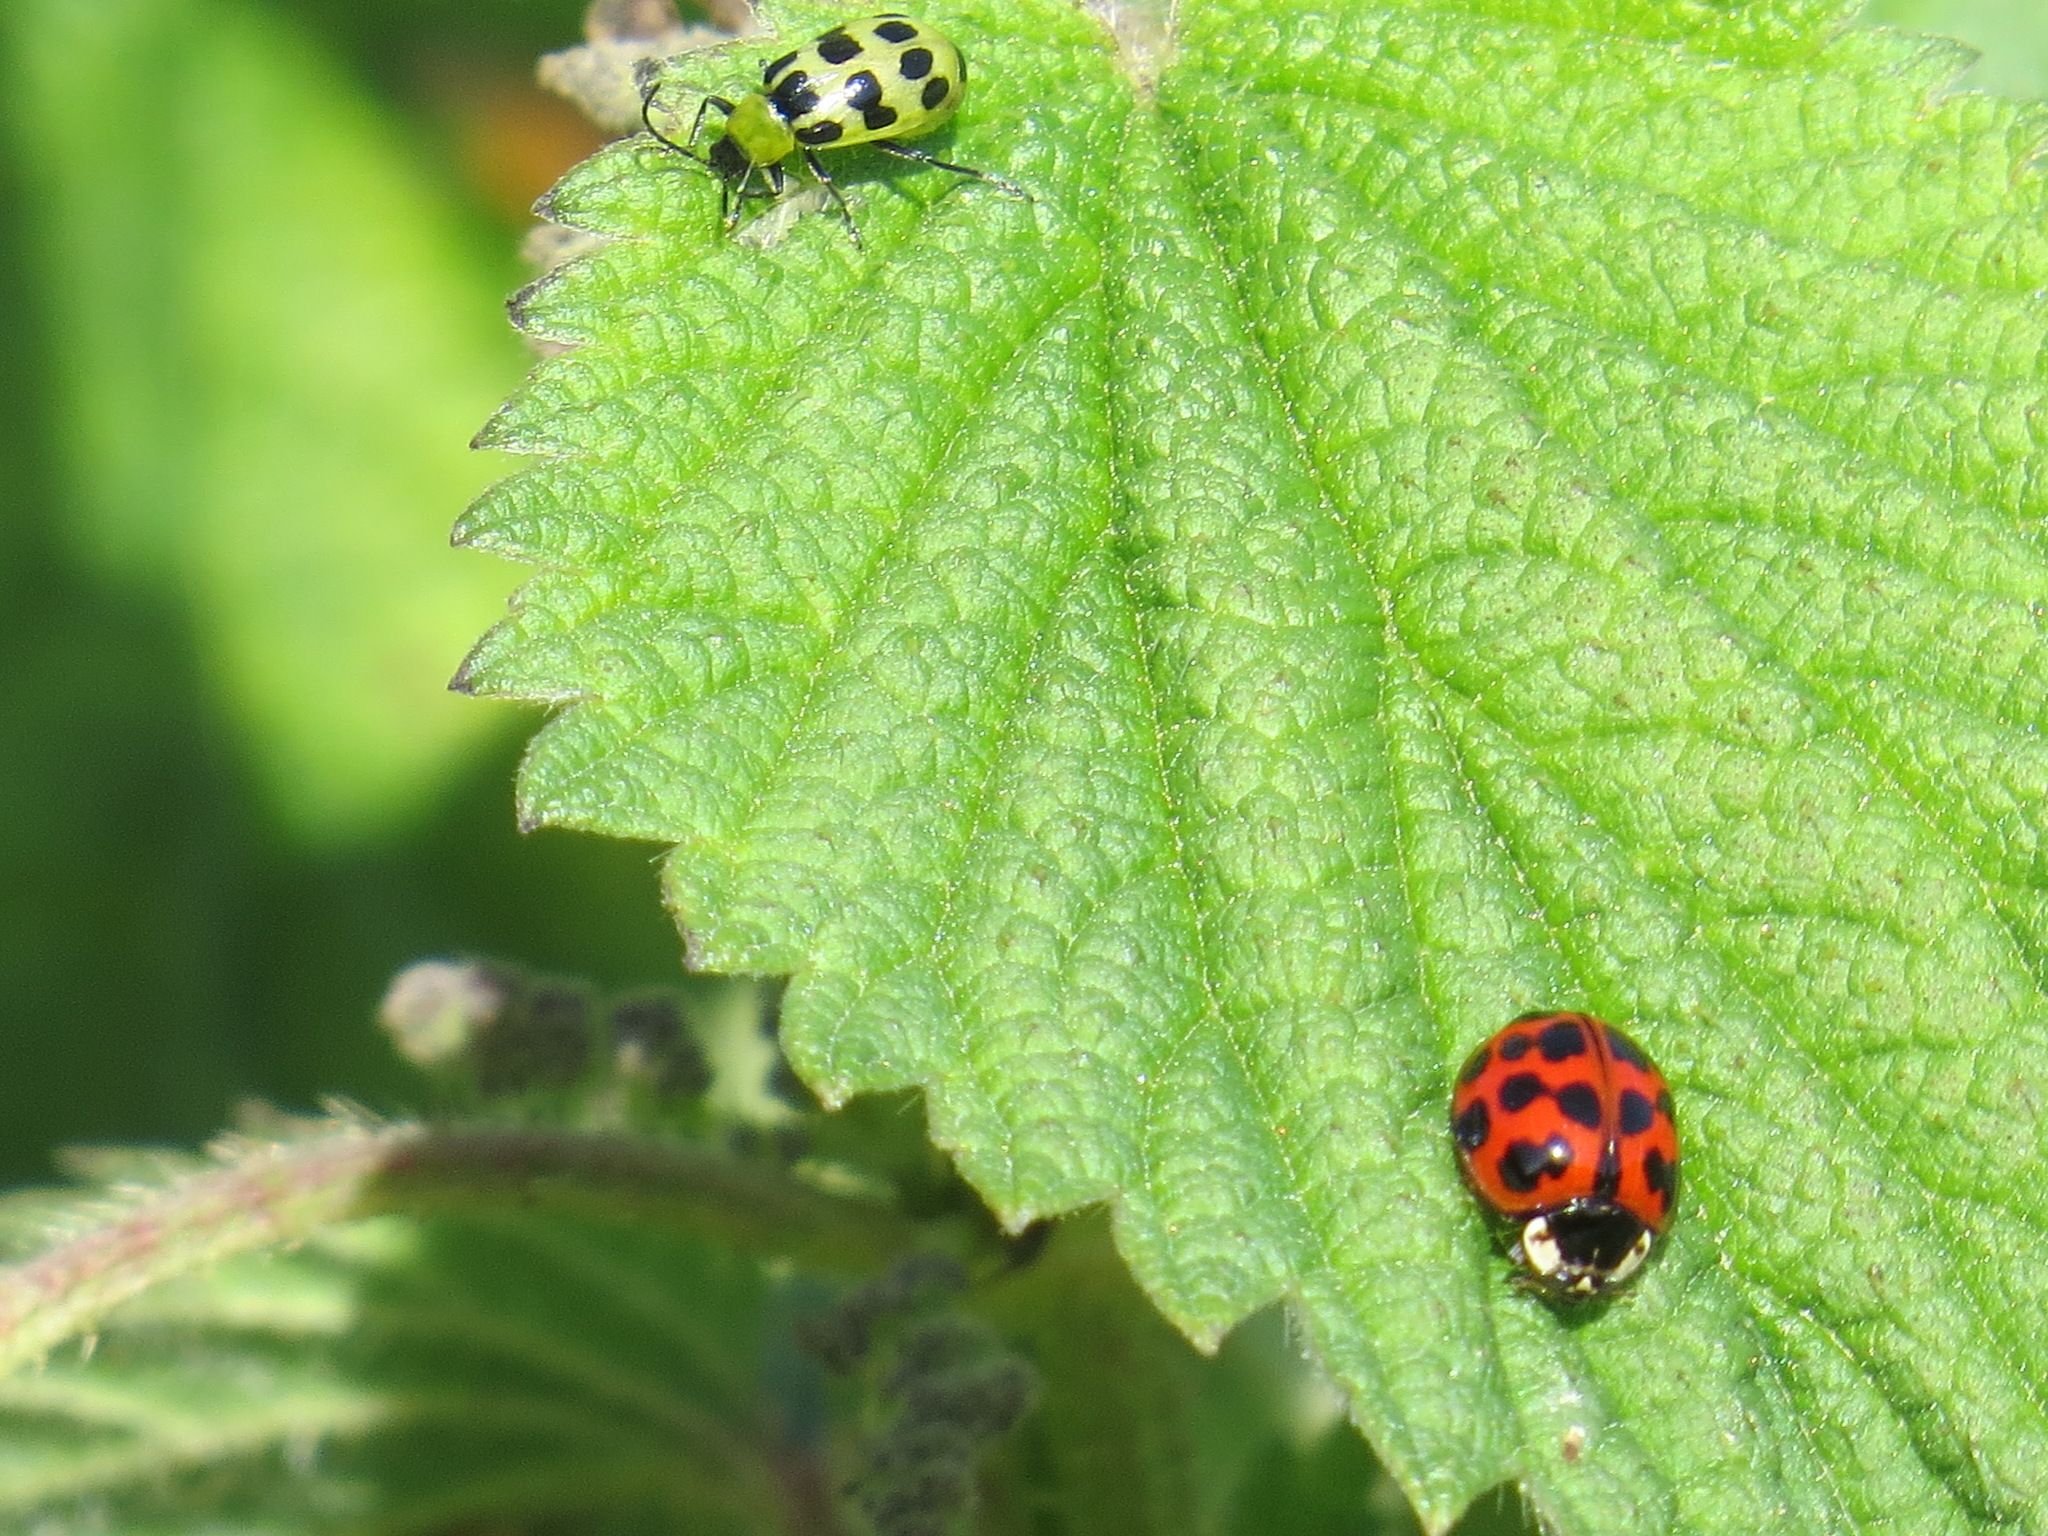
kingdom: Animalia
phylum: Arthropoda
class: Insecta
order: Coleoptera
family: Chrysomelidae
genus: Diabrotica
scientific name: Diabrotica undecimpunctata
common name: Spotted cucumber beetle
